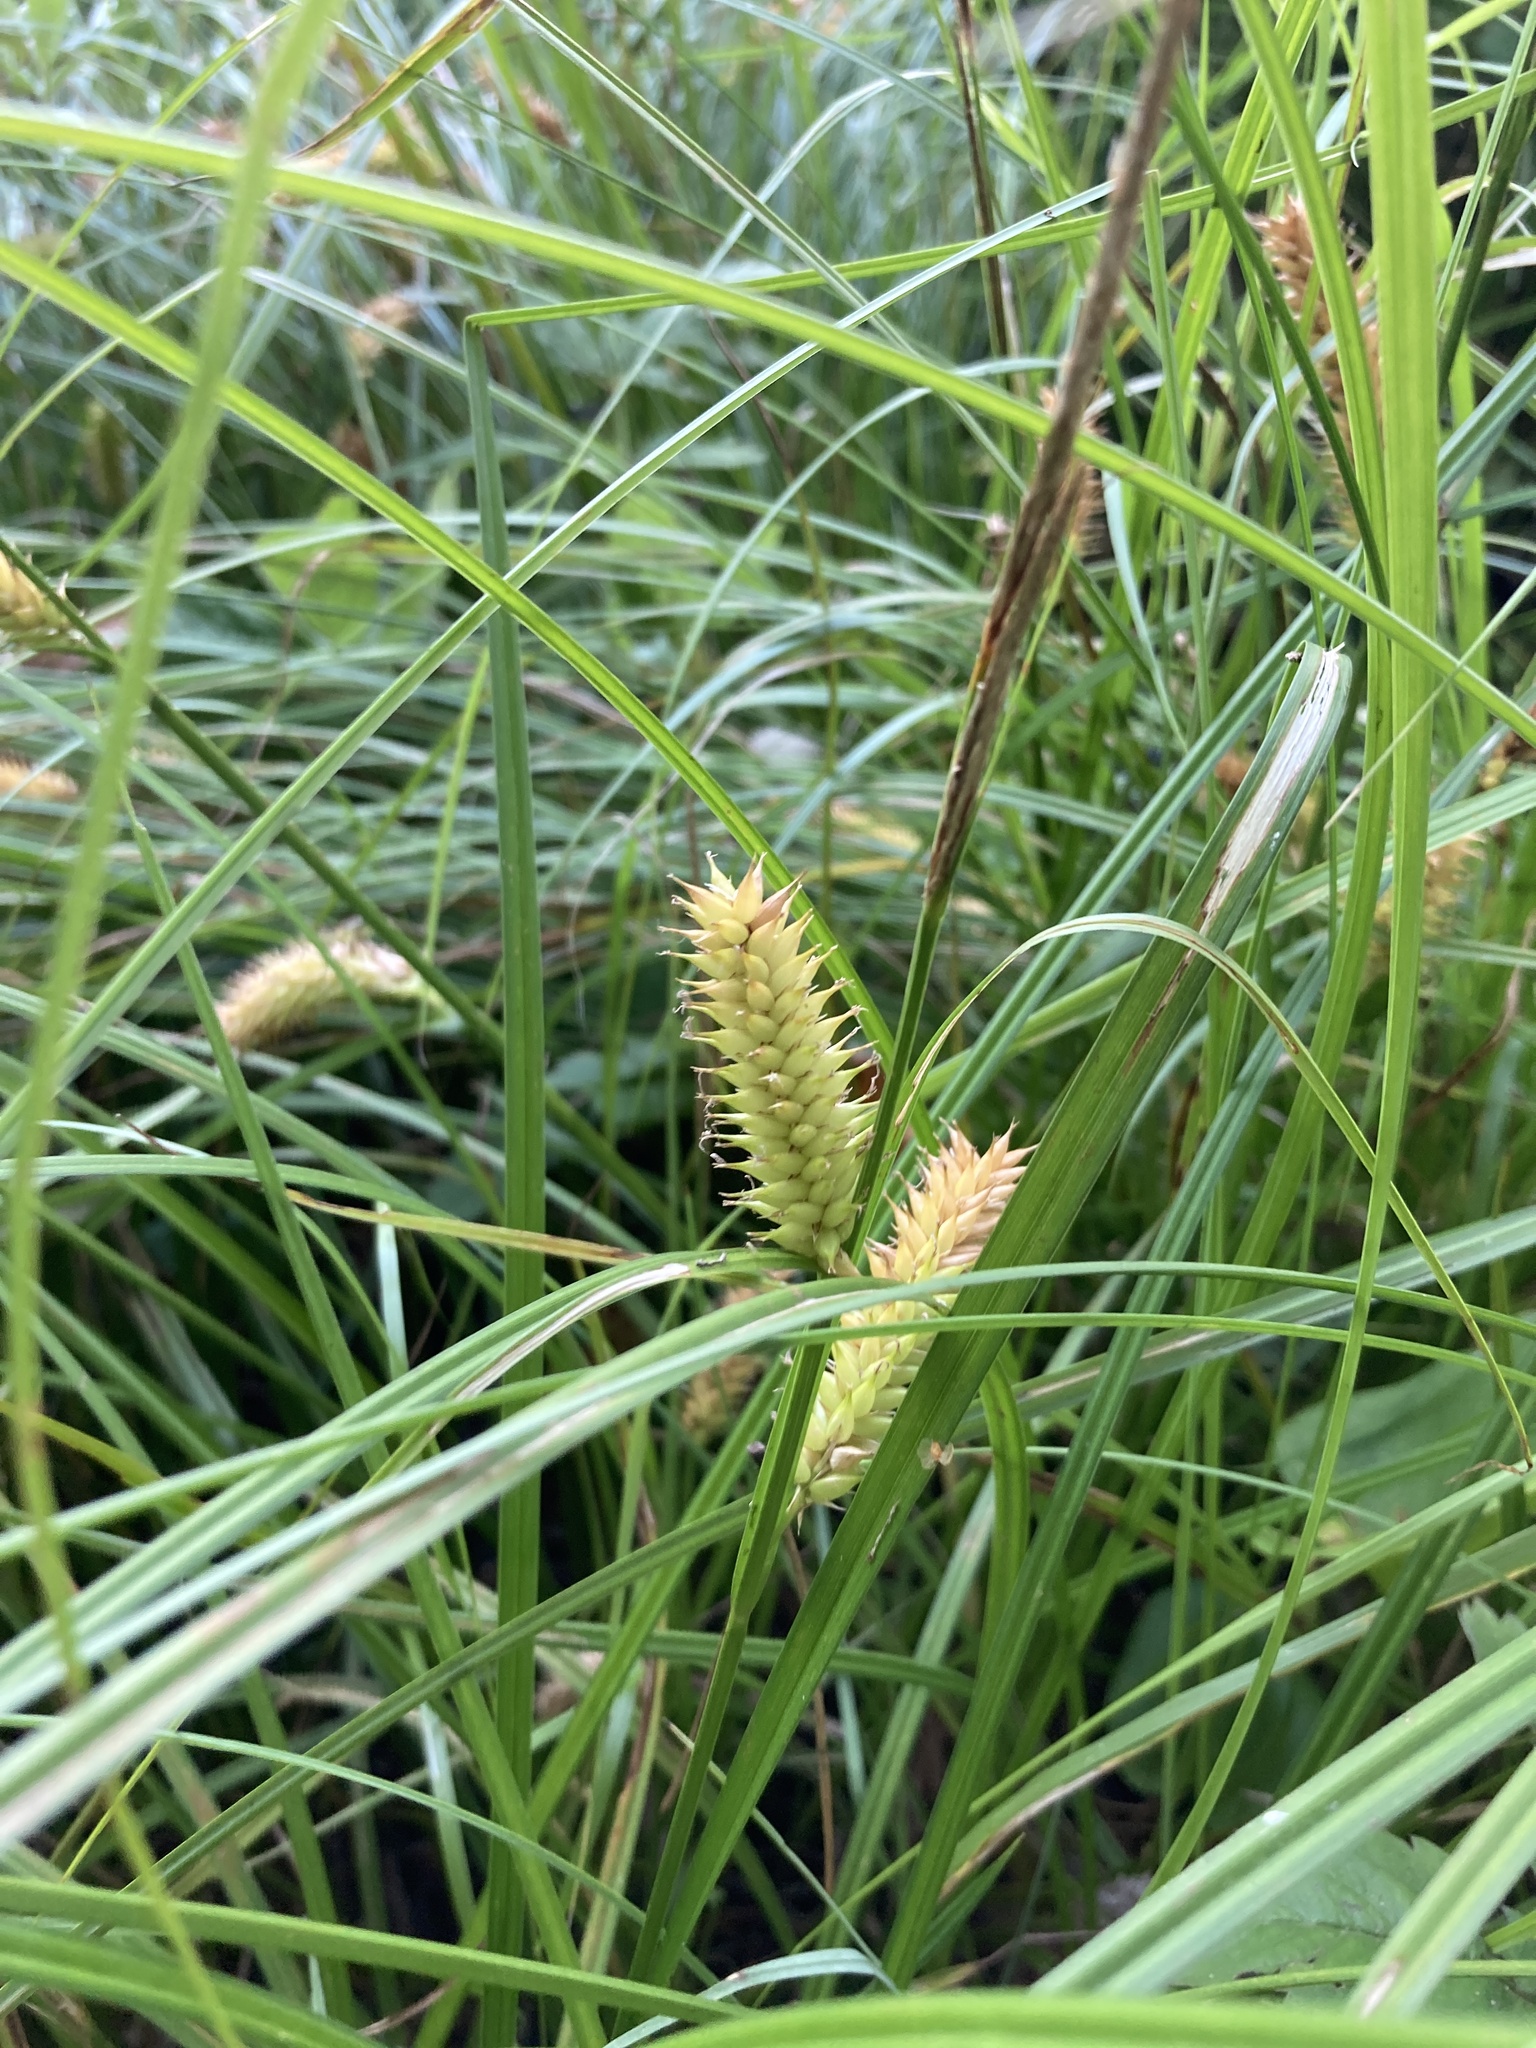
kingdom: Plantae
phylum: Tracheophyta
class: Liliopsida
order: Poales
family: Cyperaceae
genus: Carex
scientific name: Carex vesicaria
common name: Bladder-sedge
